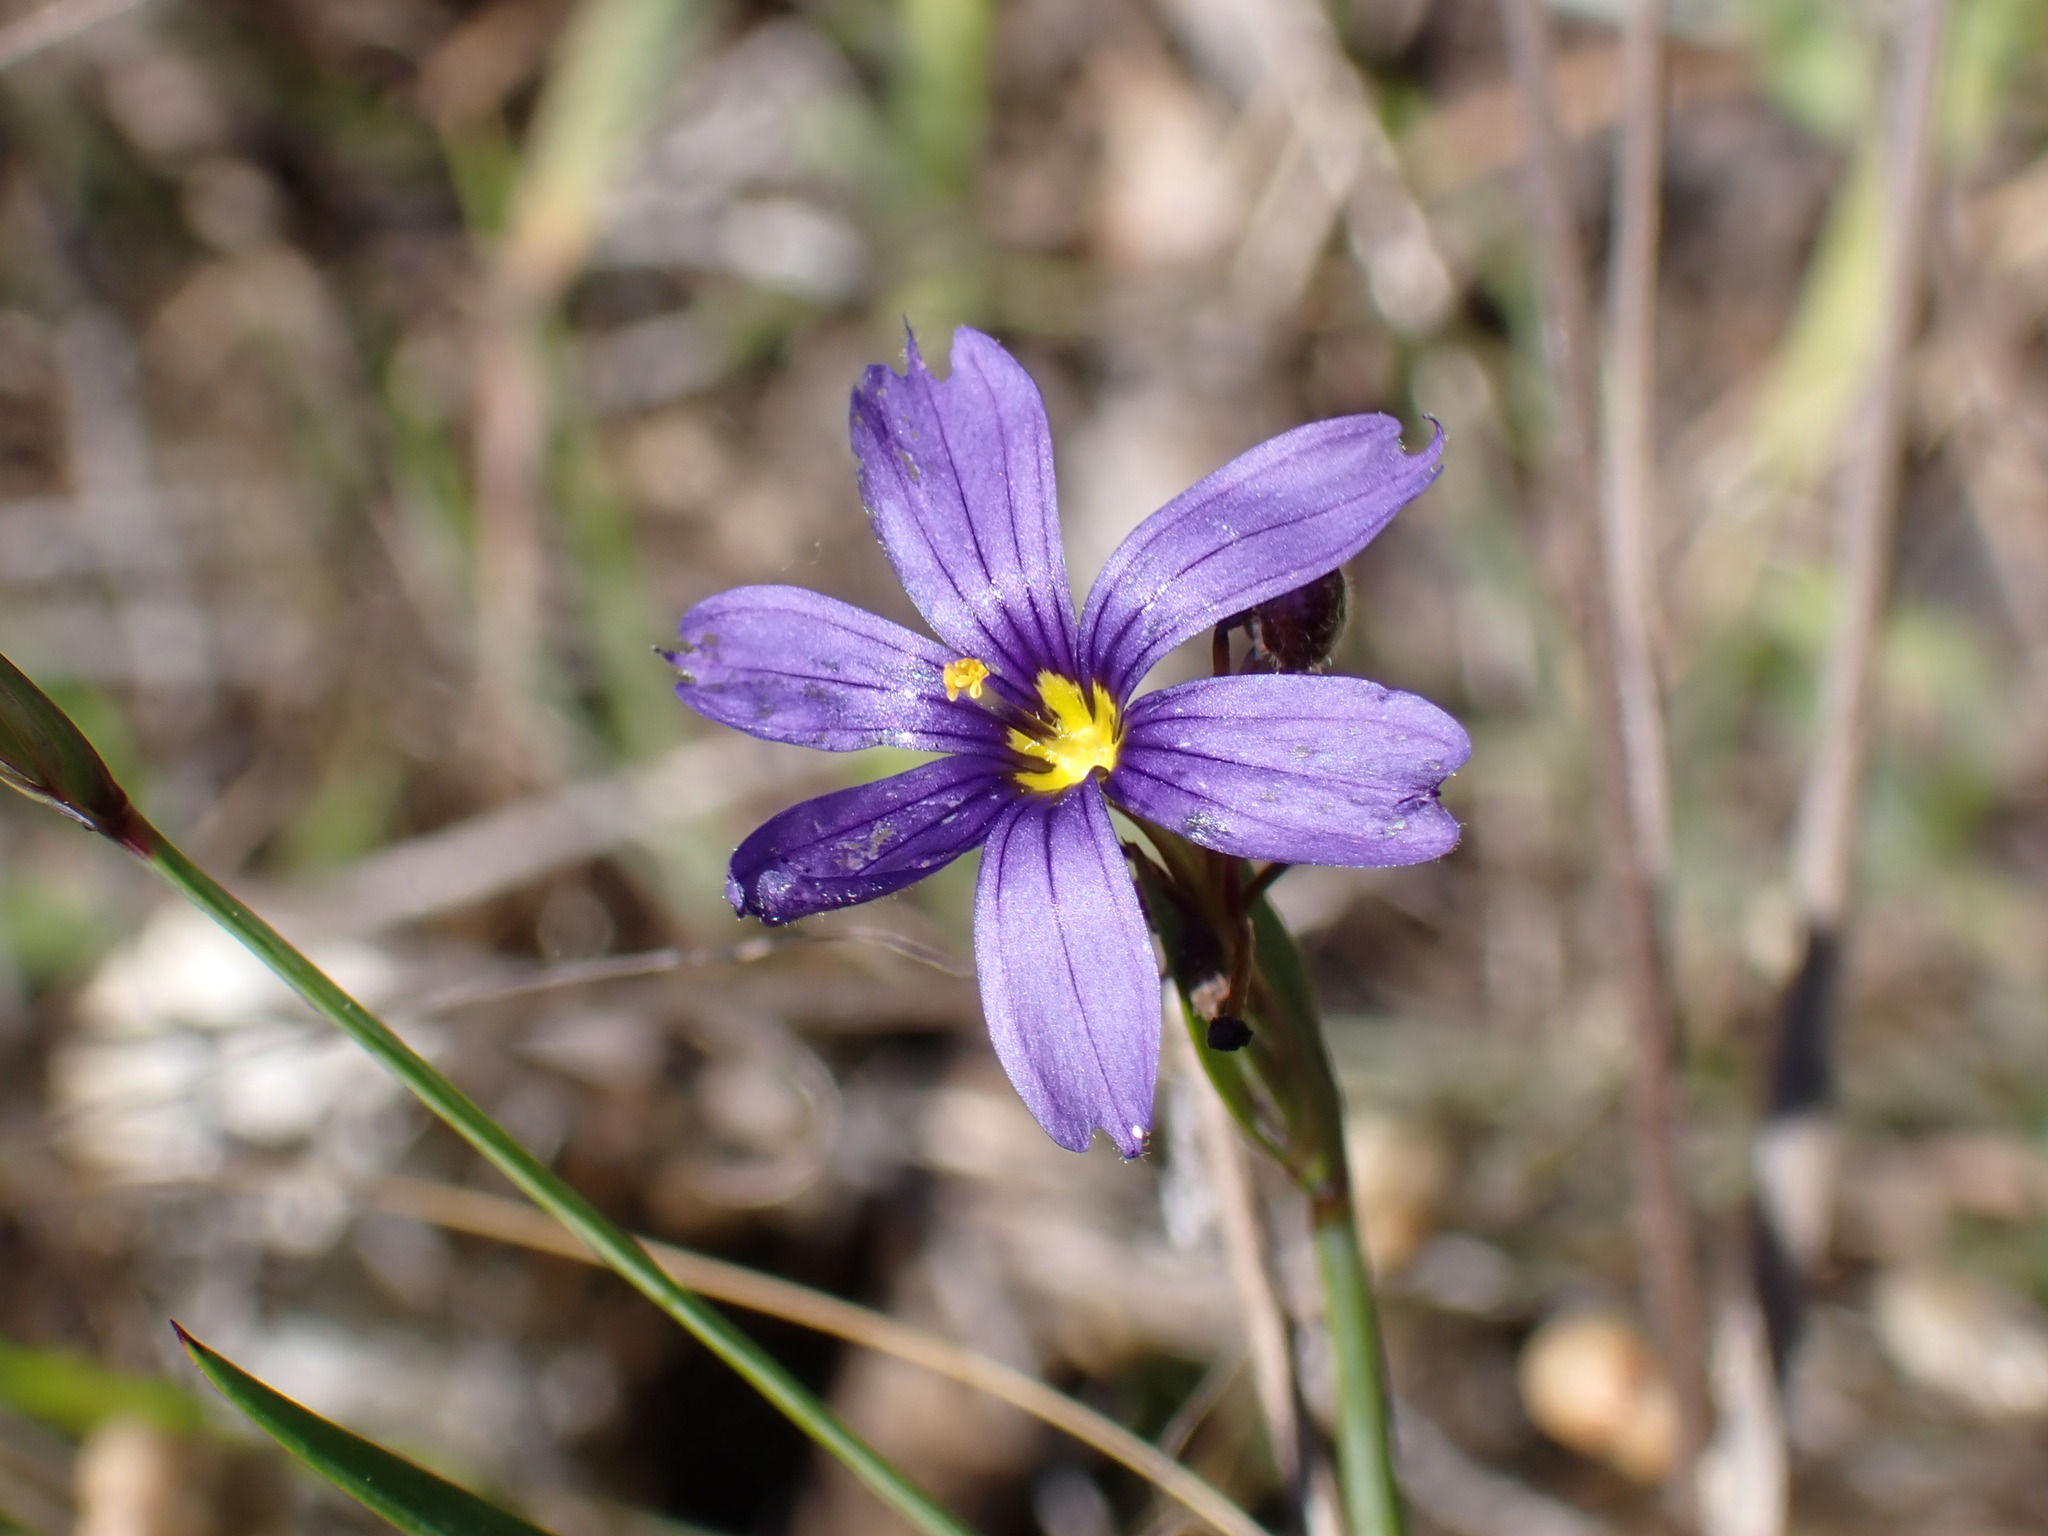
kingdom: Plantae
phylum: Tracheophyta
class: Liliopsida
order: Asparagales
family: Iridaceae
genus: Sisyrinchium
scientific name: Sisyrinchium bellum
